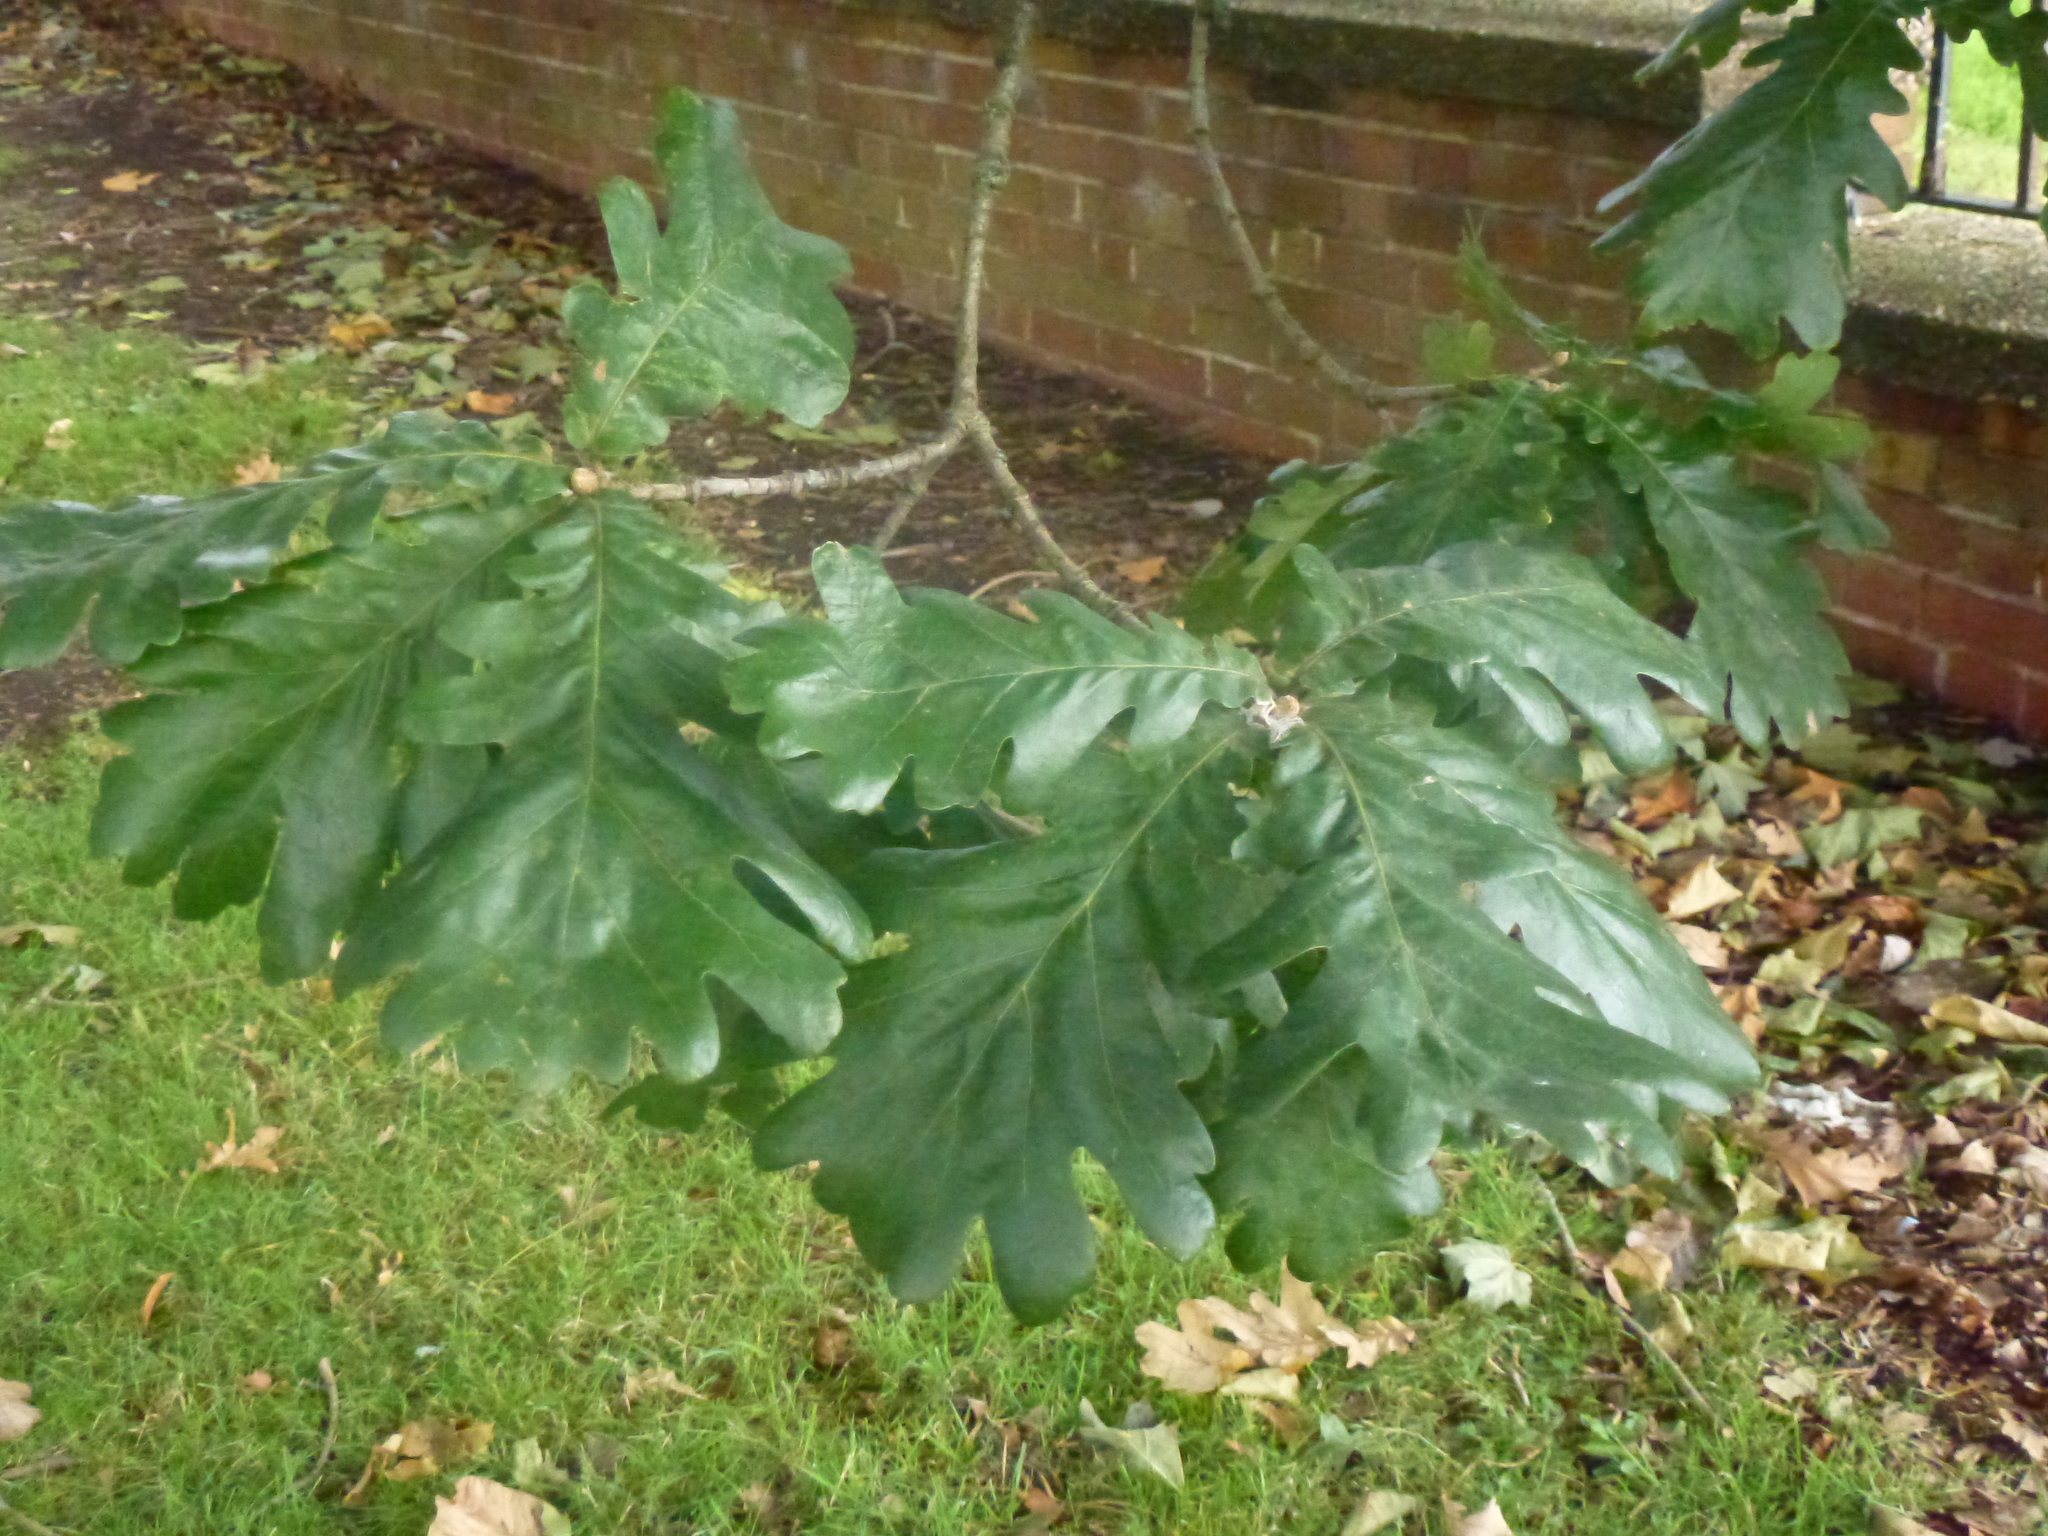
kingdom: Plantae
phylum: Tracheophyta
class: Magnoliopsida
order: Fagales
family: Fagaceae
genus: Quercus
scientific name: Quercus robur
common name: Pedunculate oak
